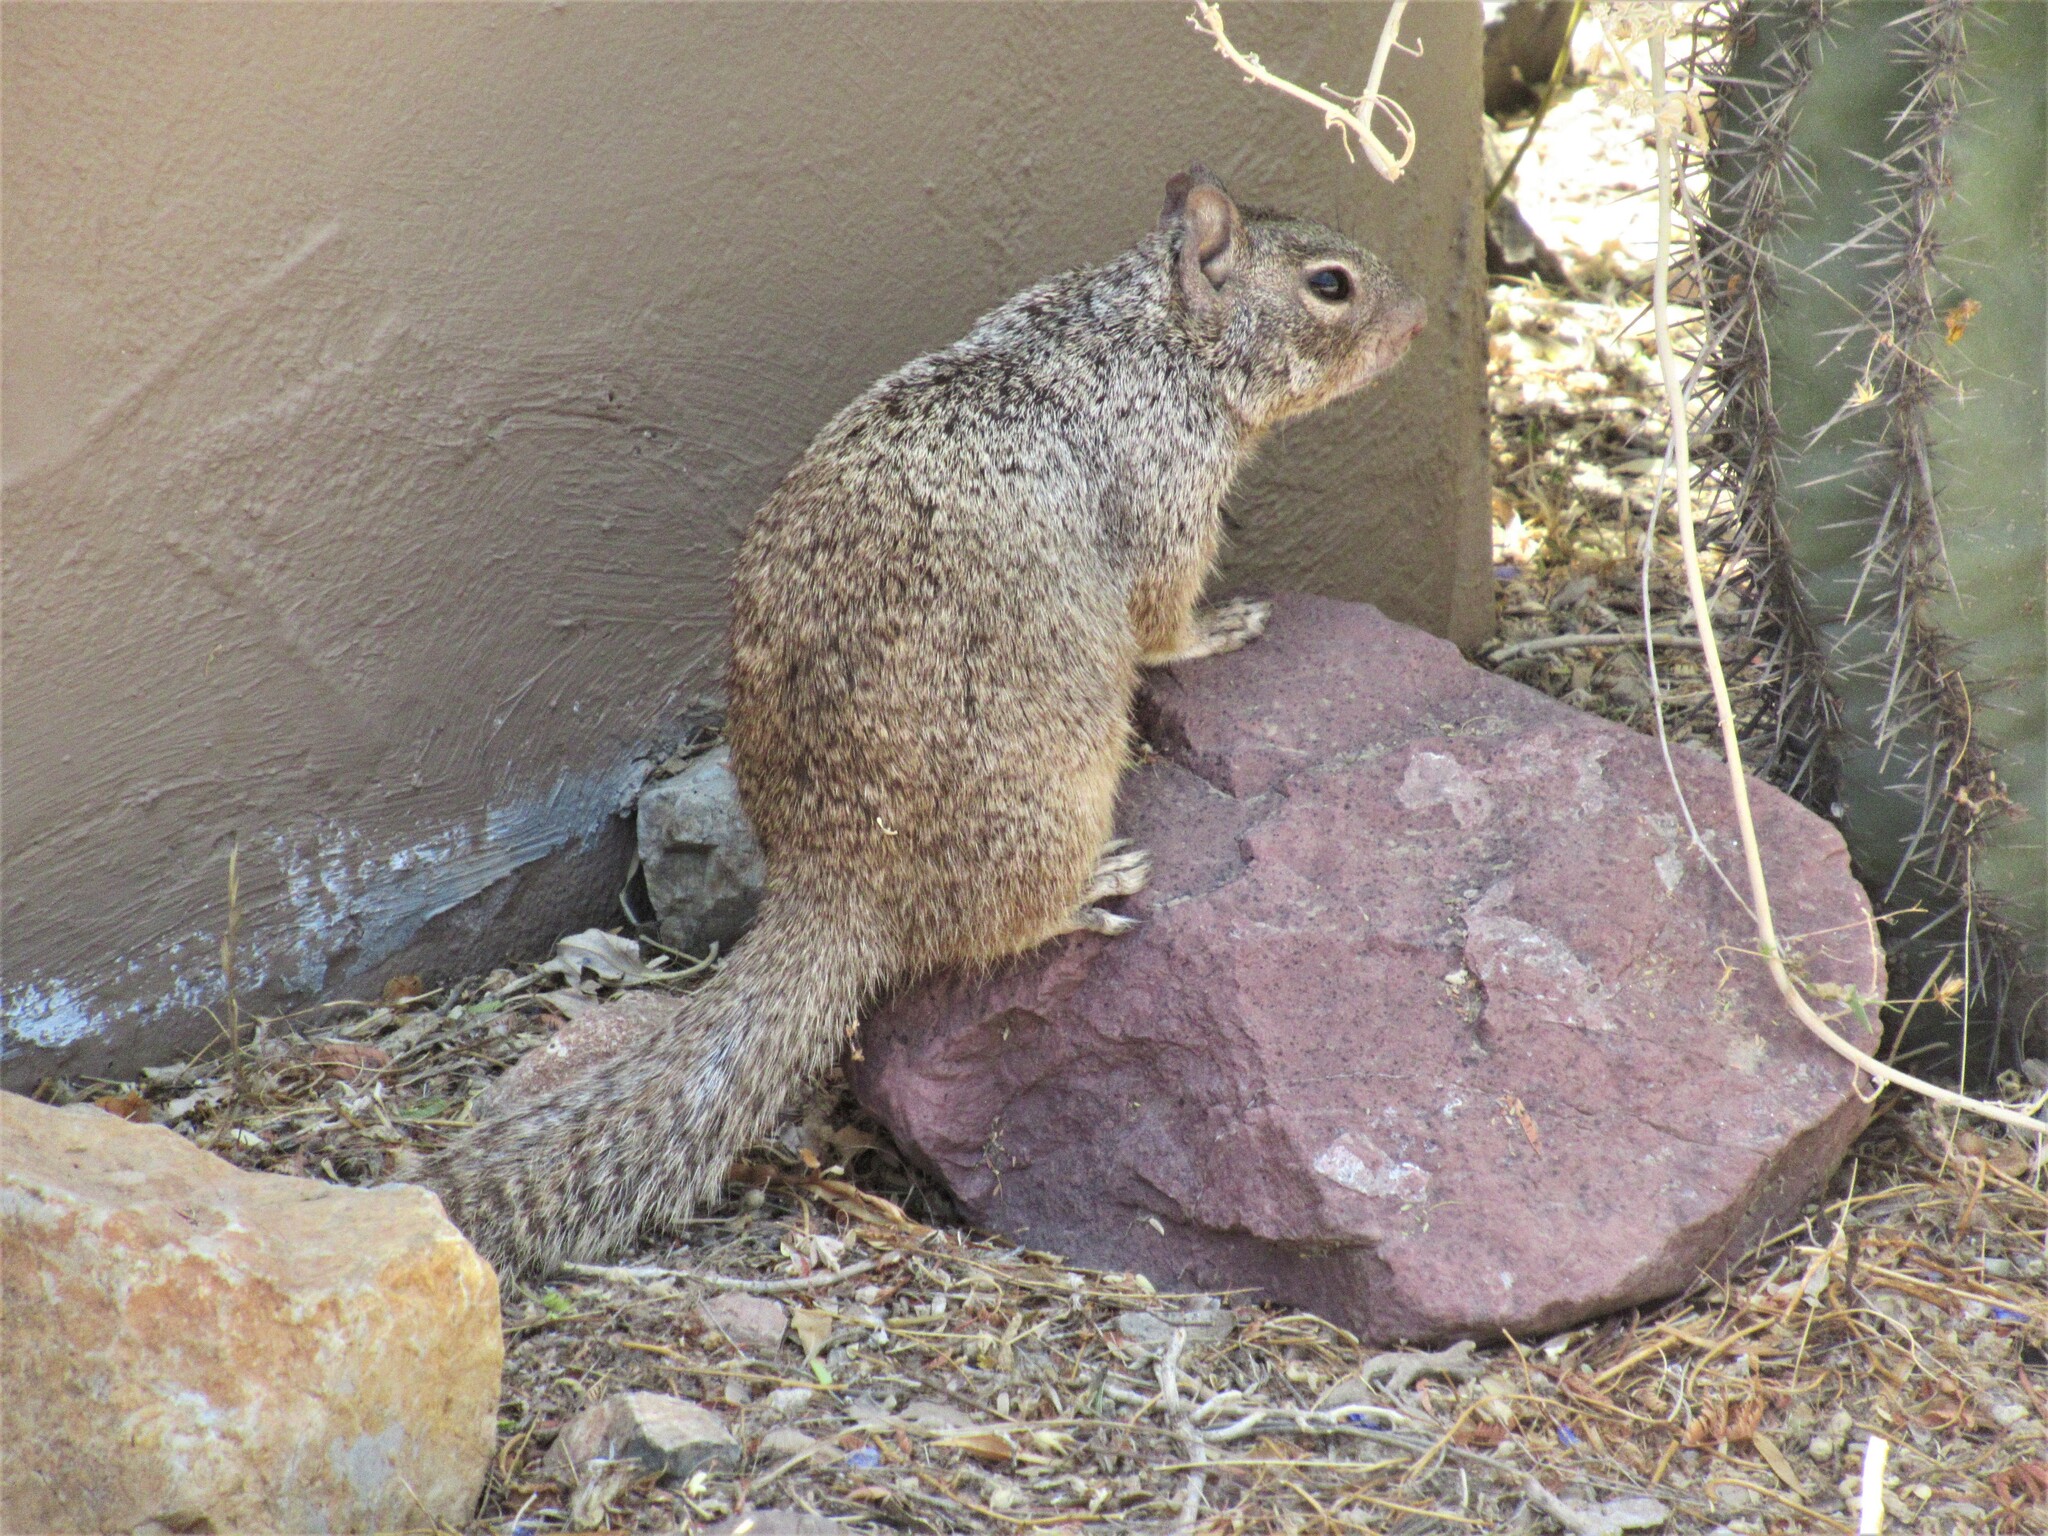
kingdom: Animalia
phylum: Chordata
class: Mammalia
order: Rodentia
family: Sciuridae
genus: Otospermophilus
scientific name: Otospermophilus variegatus
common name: Rock squirrel
